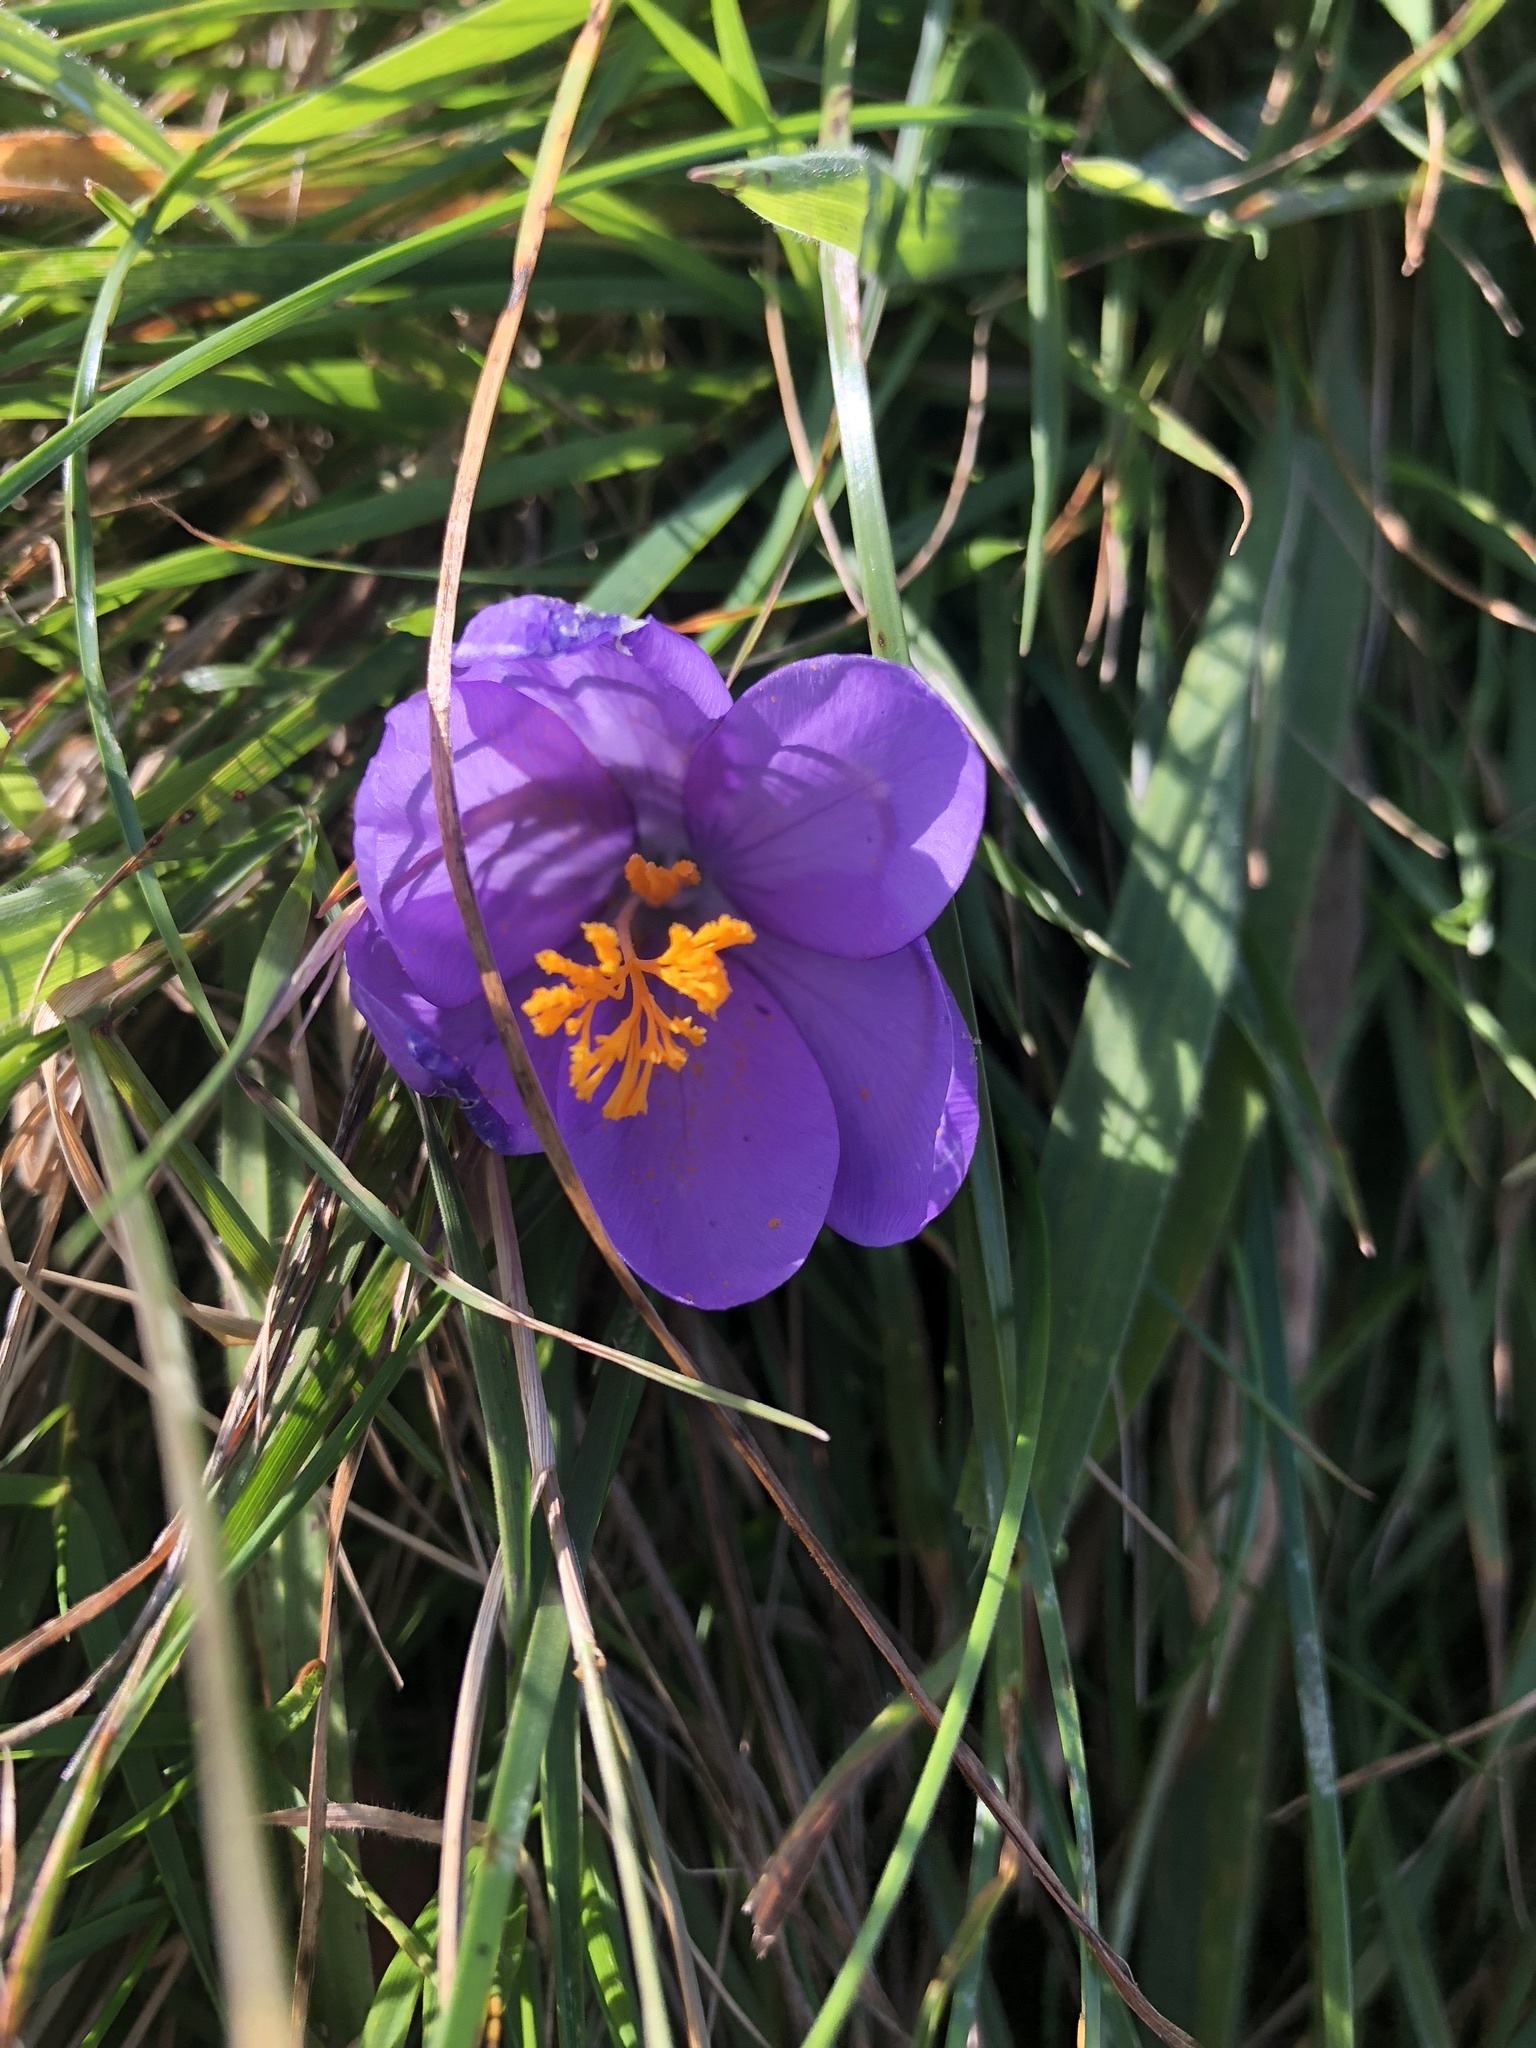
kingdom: Plantae
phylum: Tracheophyta
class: Liliopsida
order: Asparagales
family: Iridaceae
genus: Crocus
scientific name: Crocus serotinus
